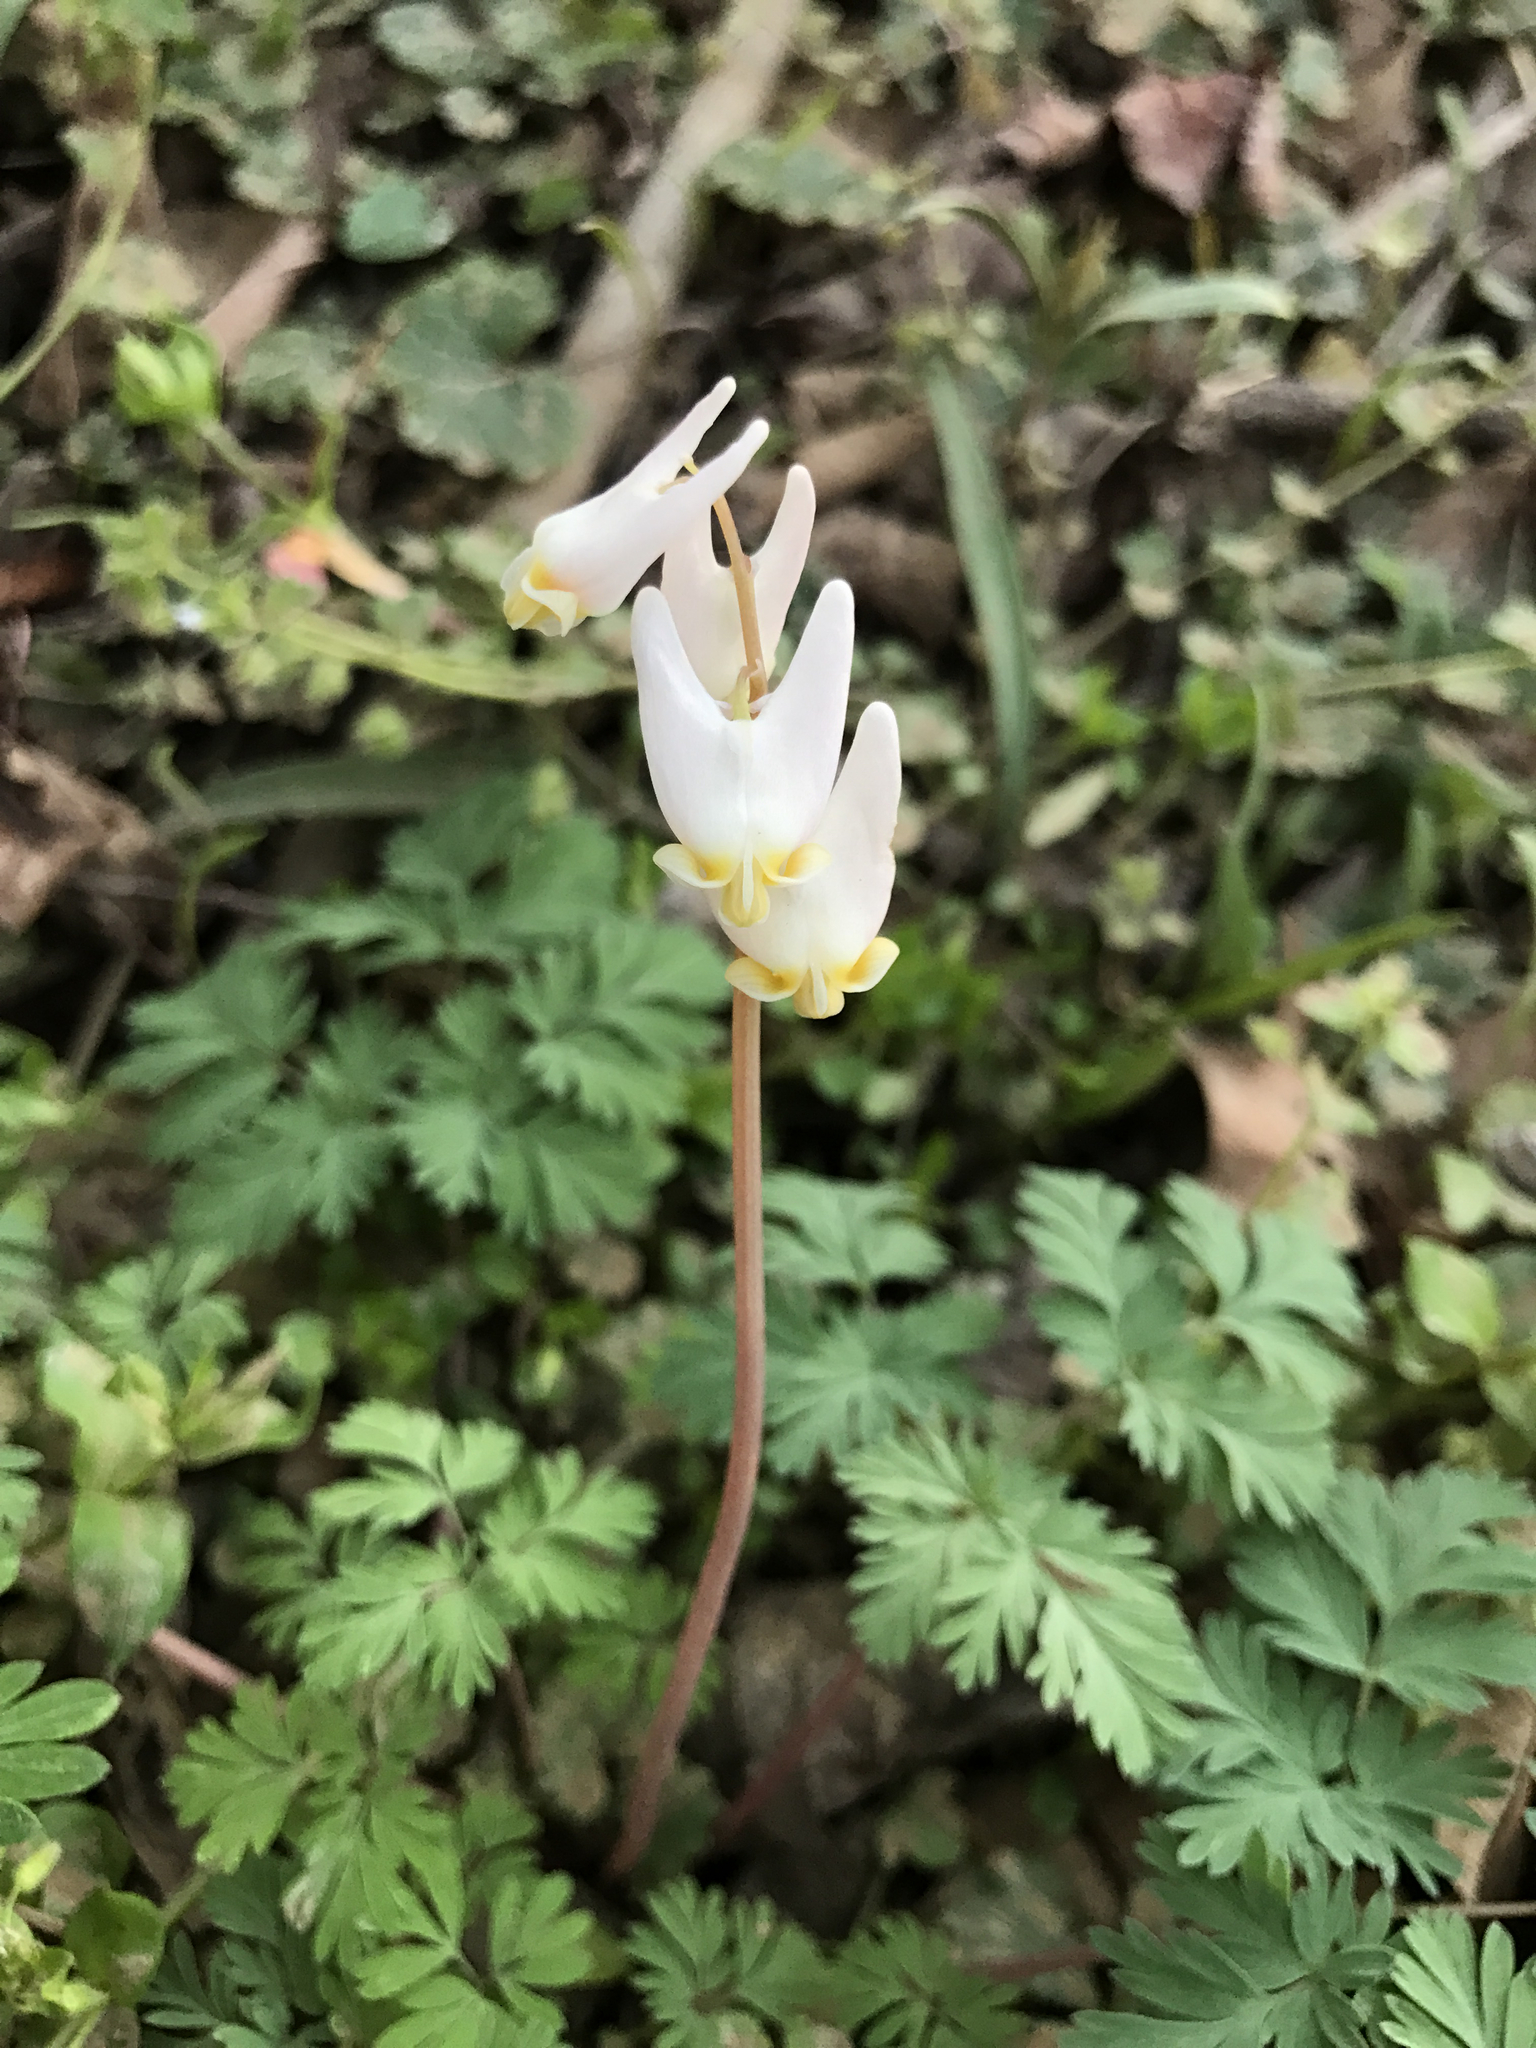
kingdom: Plantae
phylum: Tracheophyta
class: Magnoliopsida
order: Ranunculales
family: Papaveraceae
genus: Dicentra
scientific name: Dicentra cucullaria
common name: Dutchman's breeches
